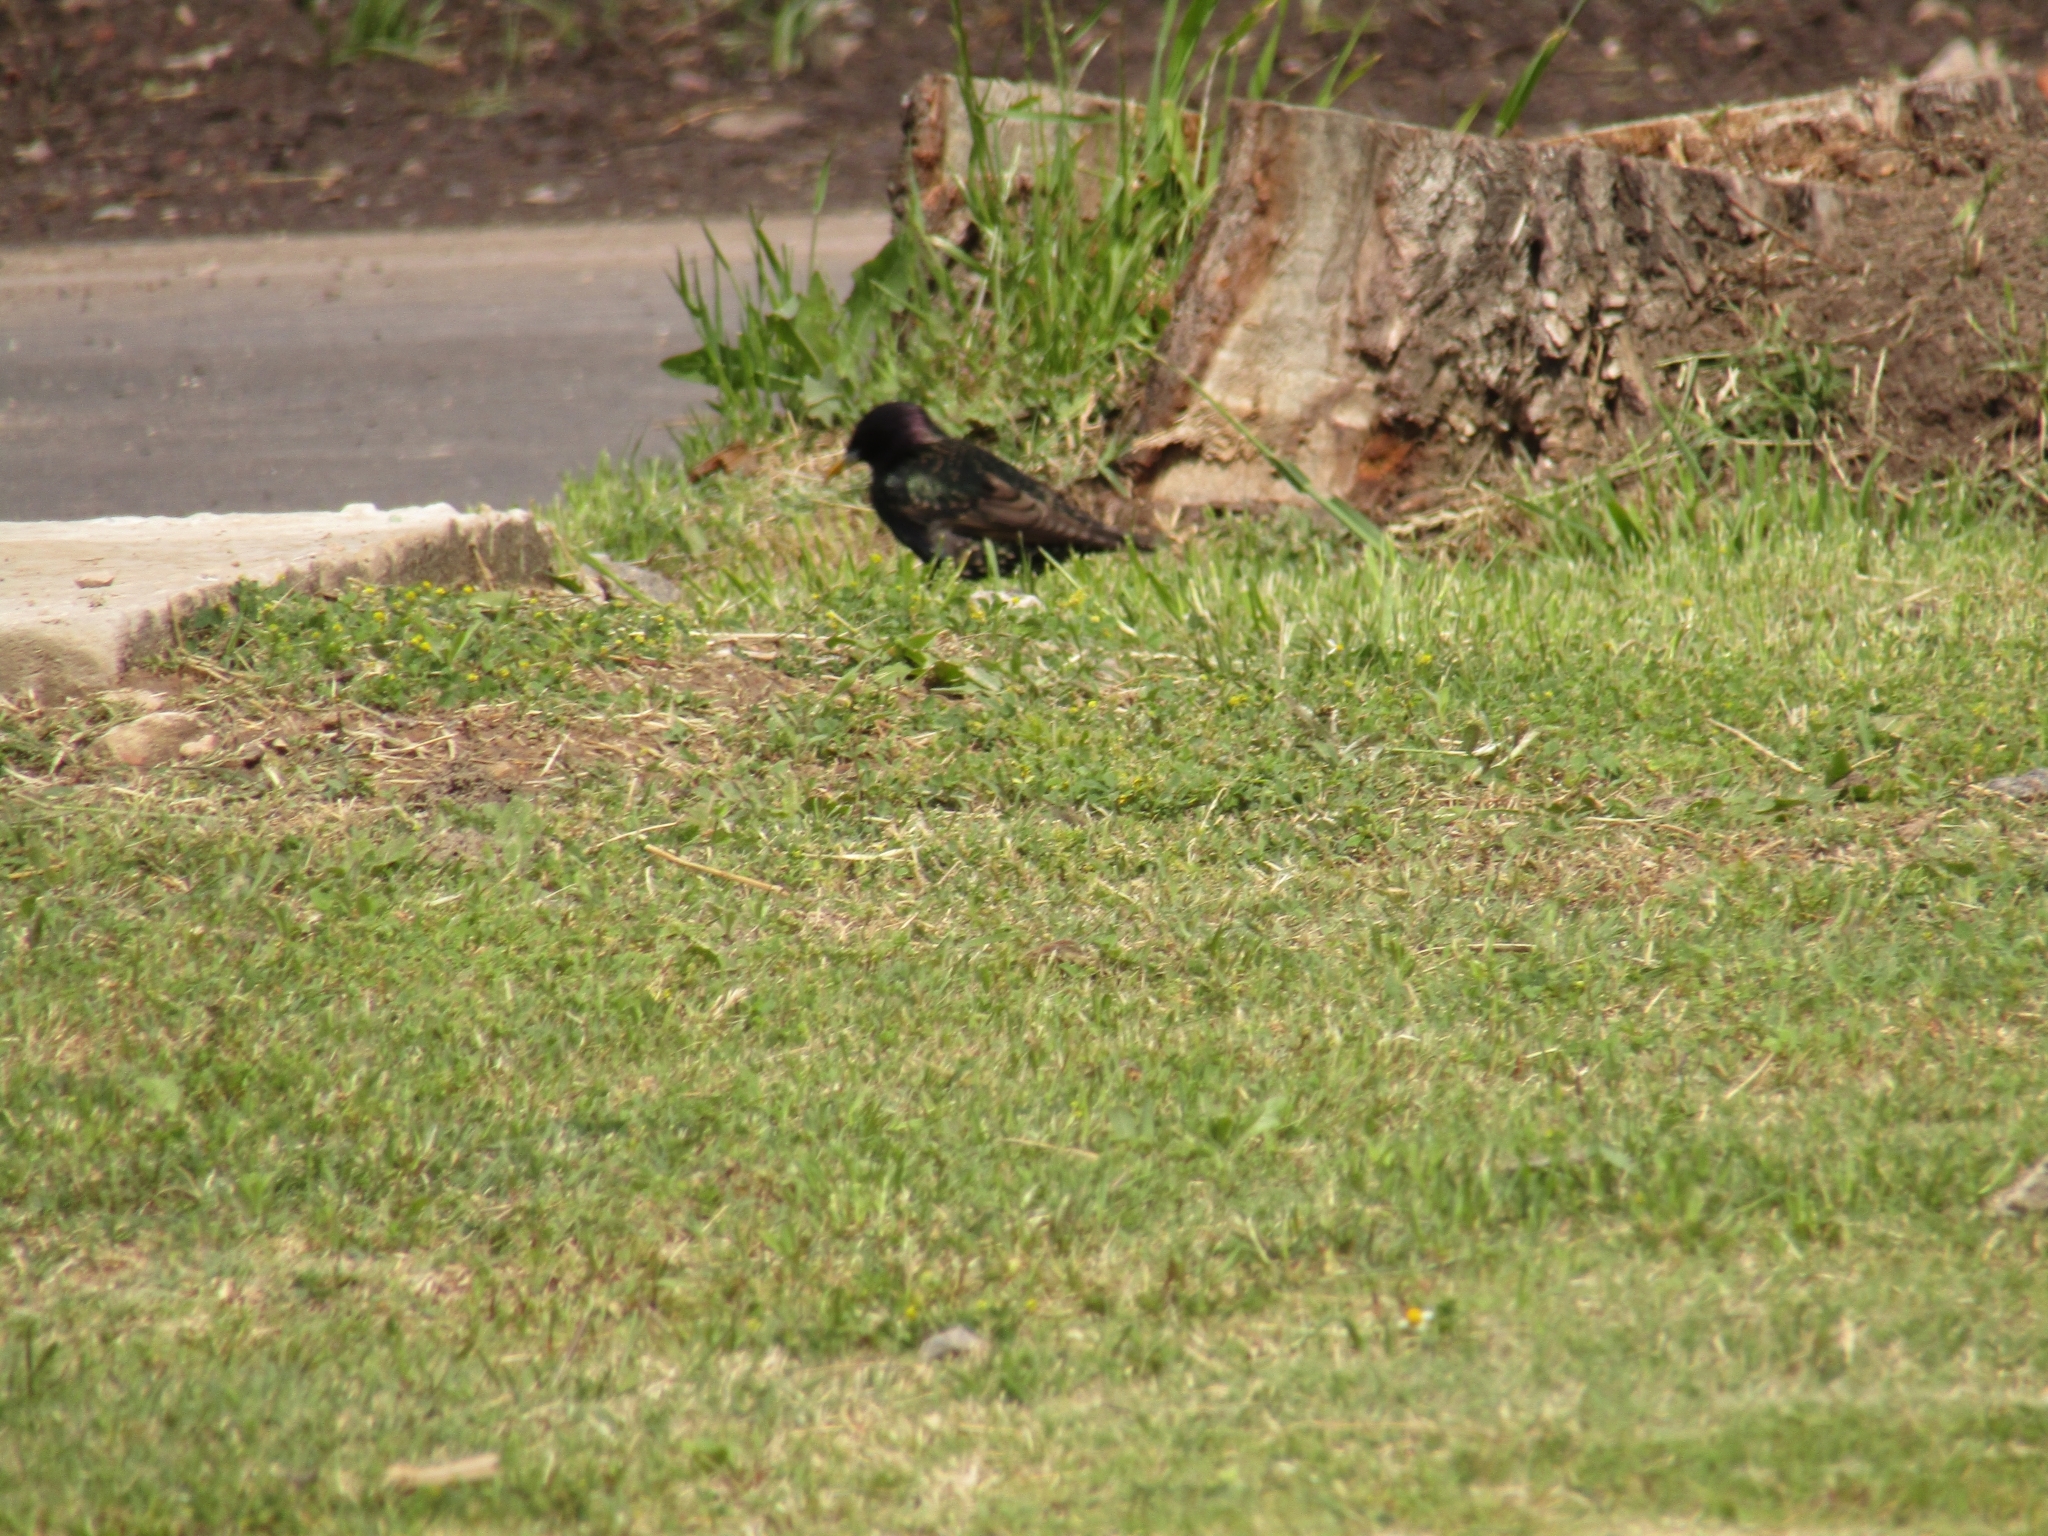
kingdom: Animalia
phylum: Chordata
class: Aves
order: Passeriformes
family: Sturnidae
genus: Sturnus
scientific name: Sturnus vulgaris
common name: Common starling
